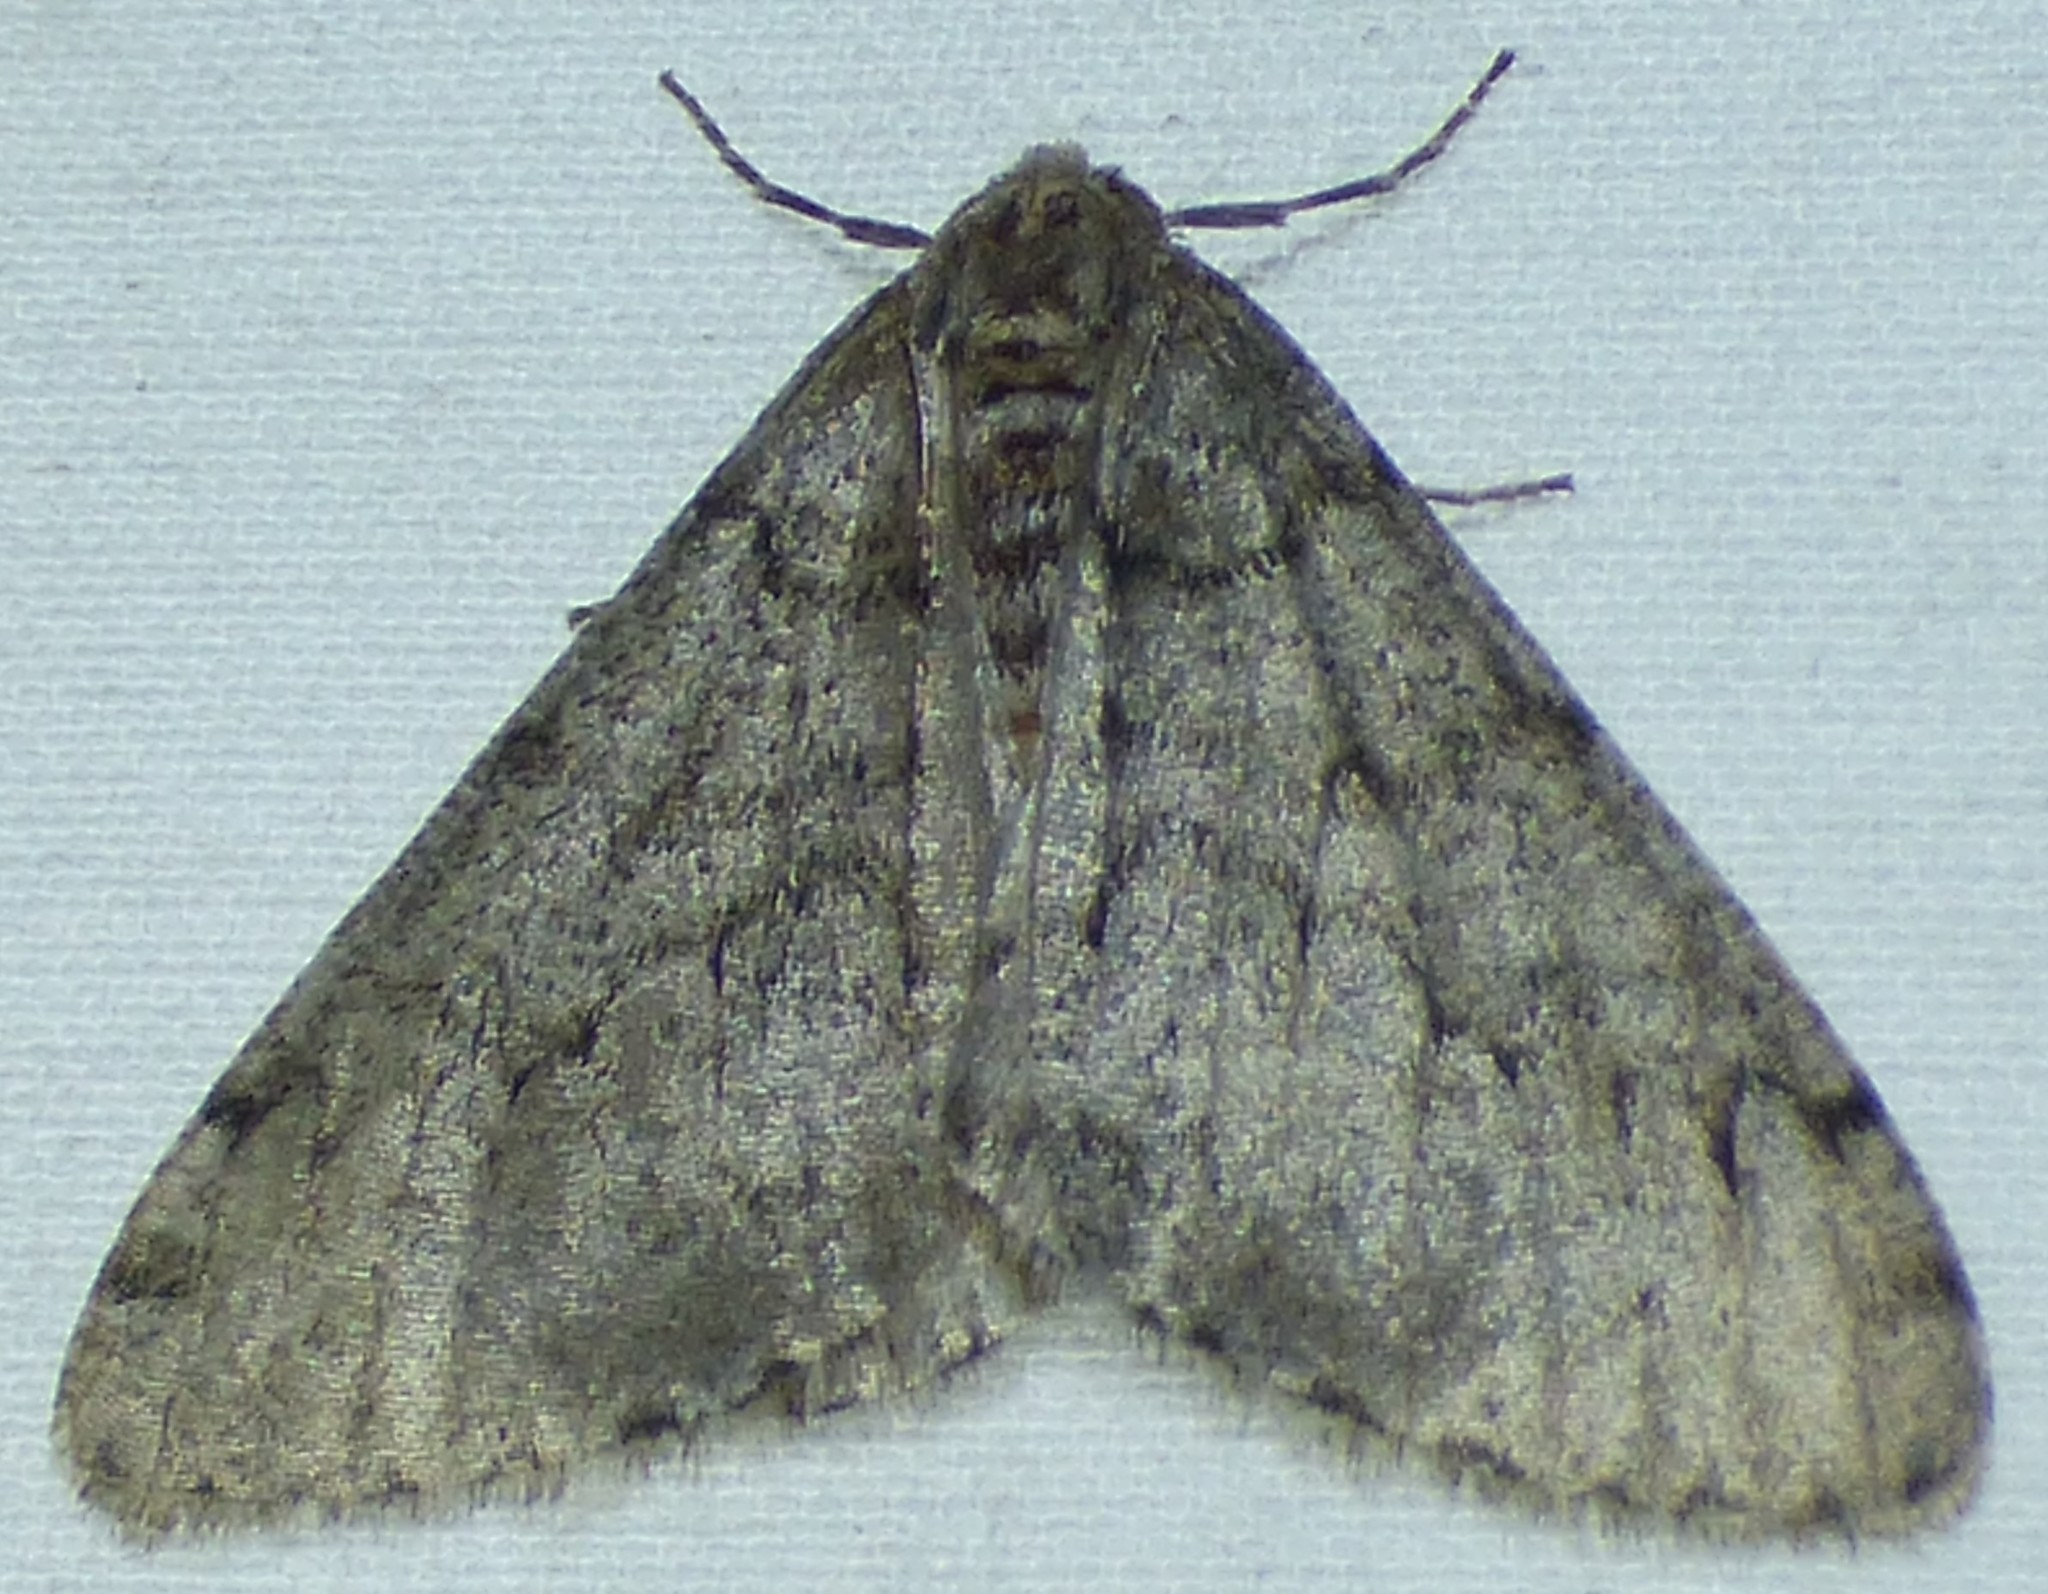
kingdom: Animalia
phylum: Arthropoda
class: Insecta
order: Lepidoptera
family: Geometridae
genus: Phigalia
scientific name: Phigalia strigataria
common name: Small phigalia
